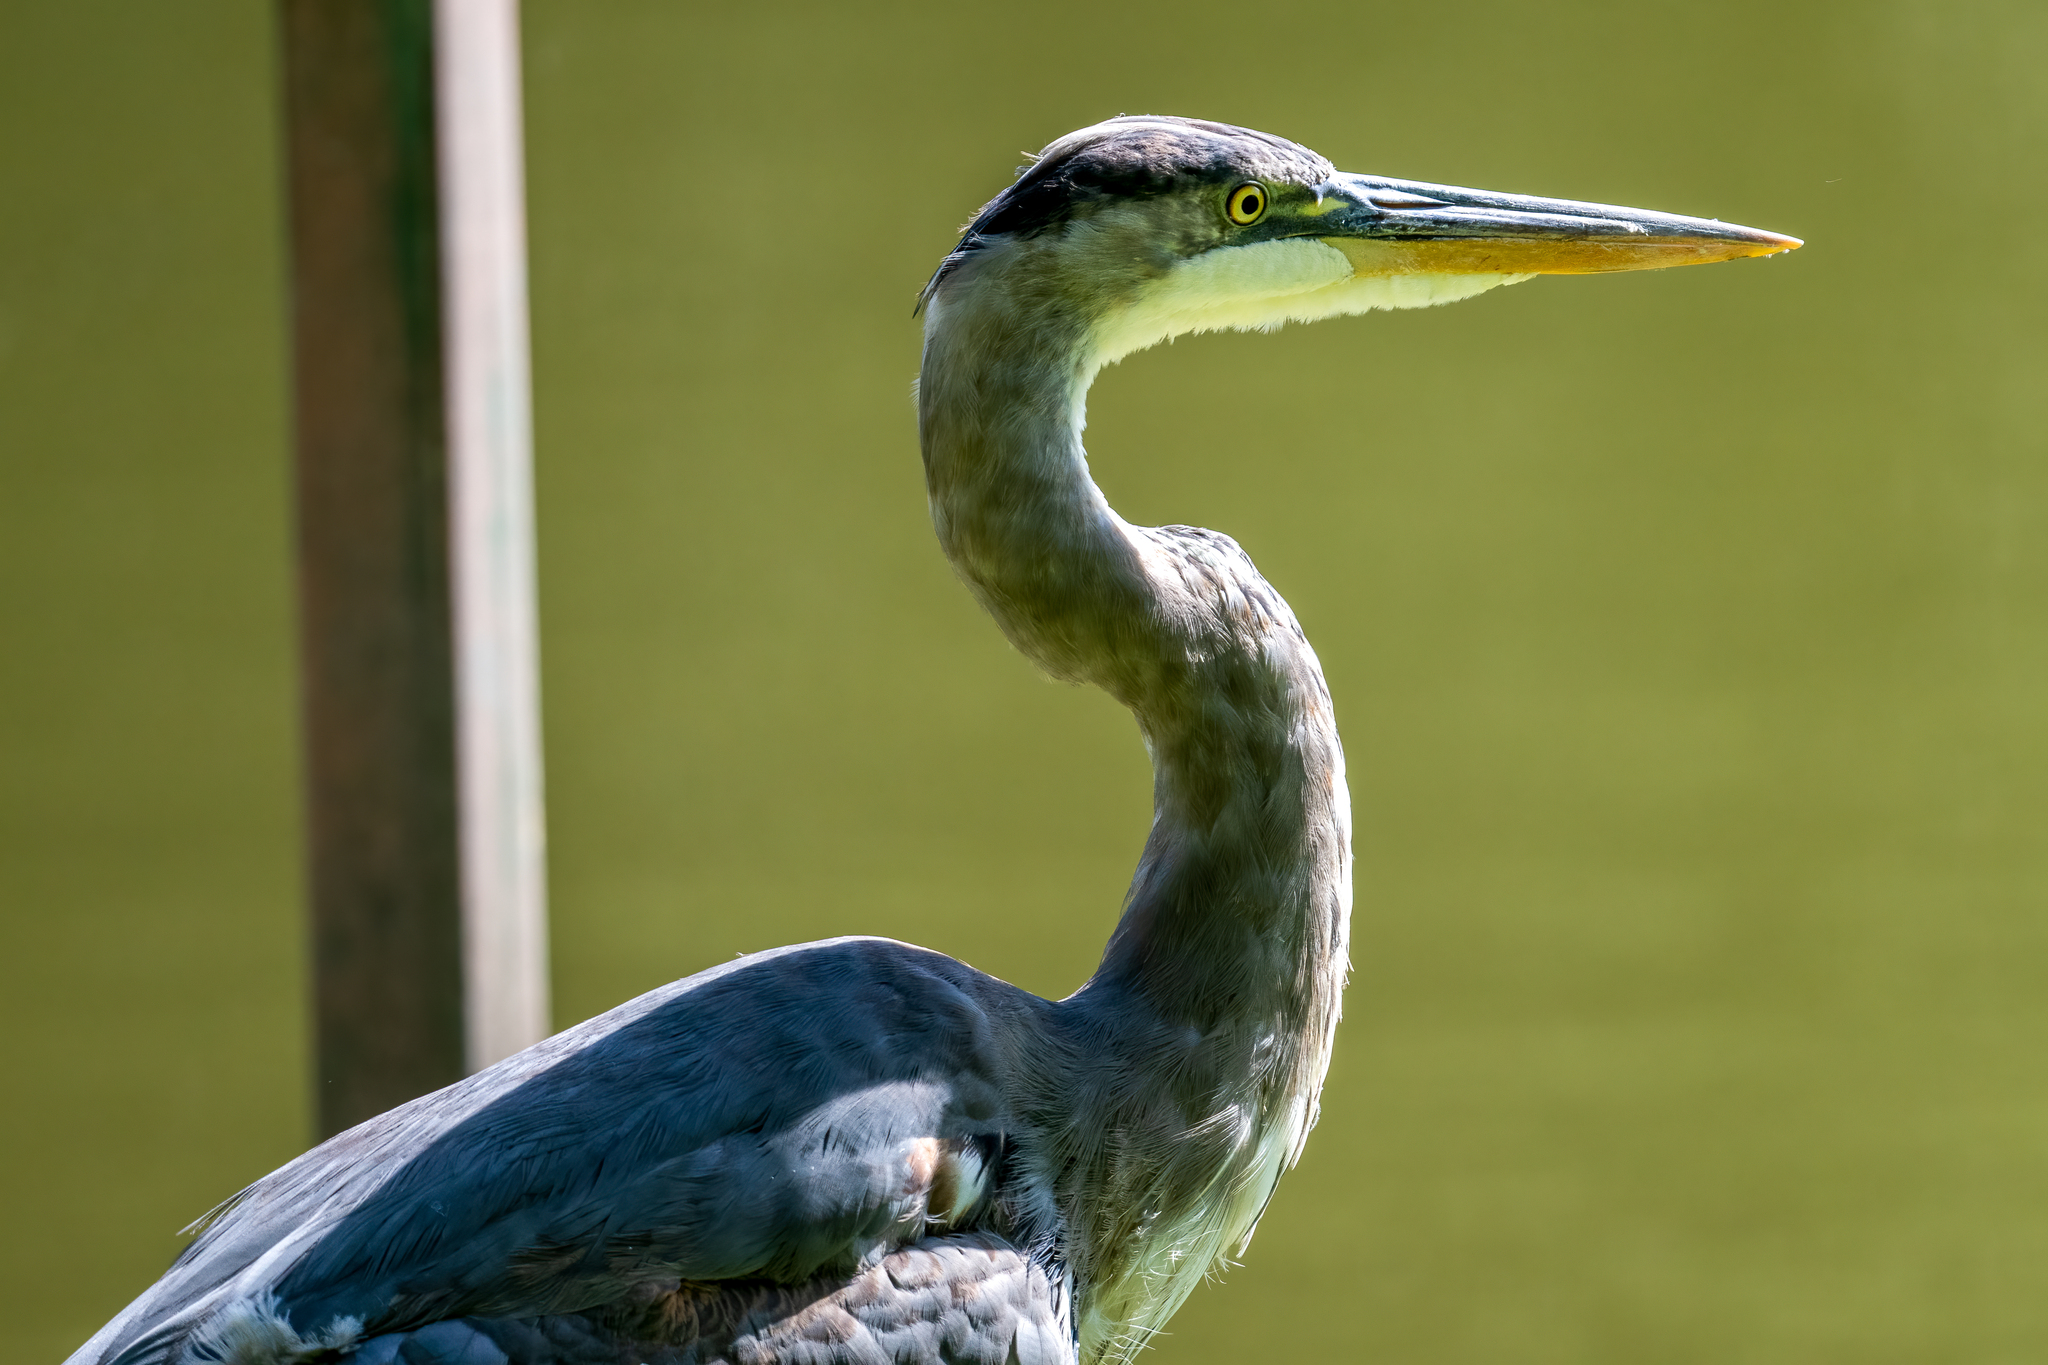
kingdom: Animalia
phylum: Chordata
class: Aves
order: Pelecaniformes
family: Ardeidae
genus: Ardea
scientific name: Ardea herodias
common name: Great blue heron
